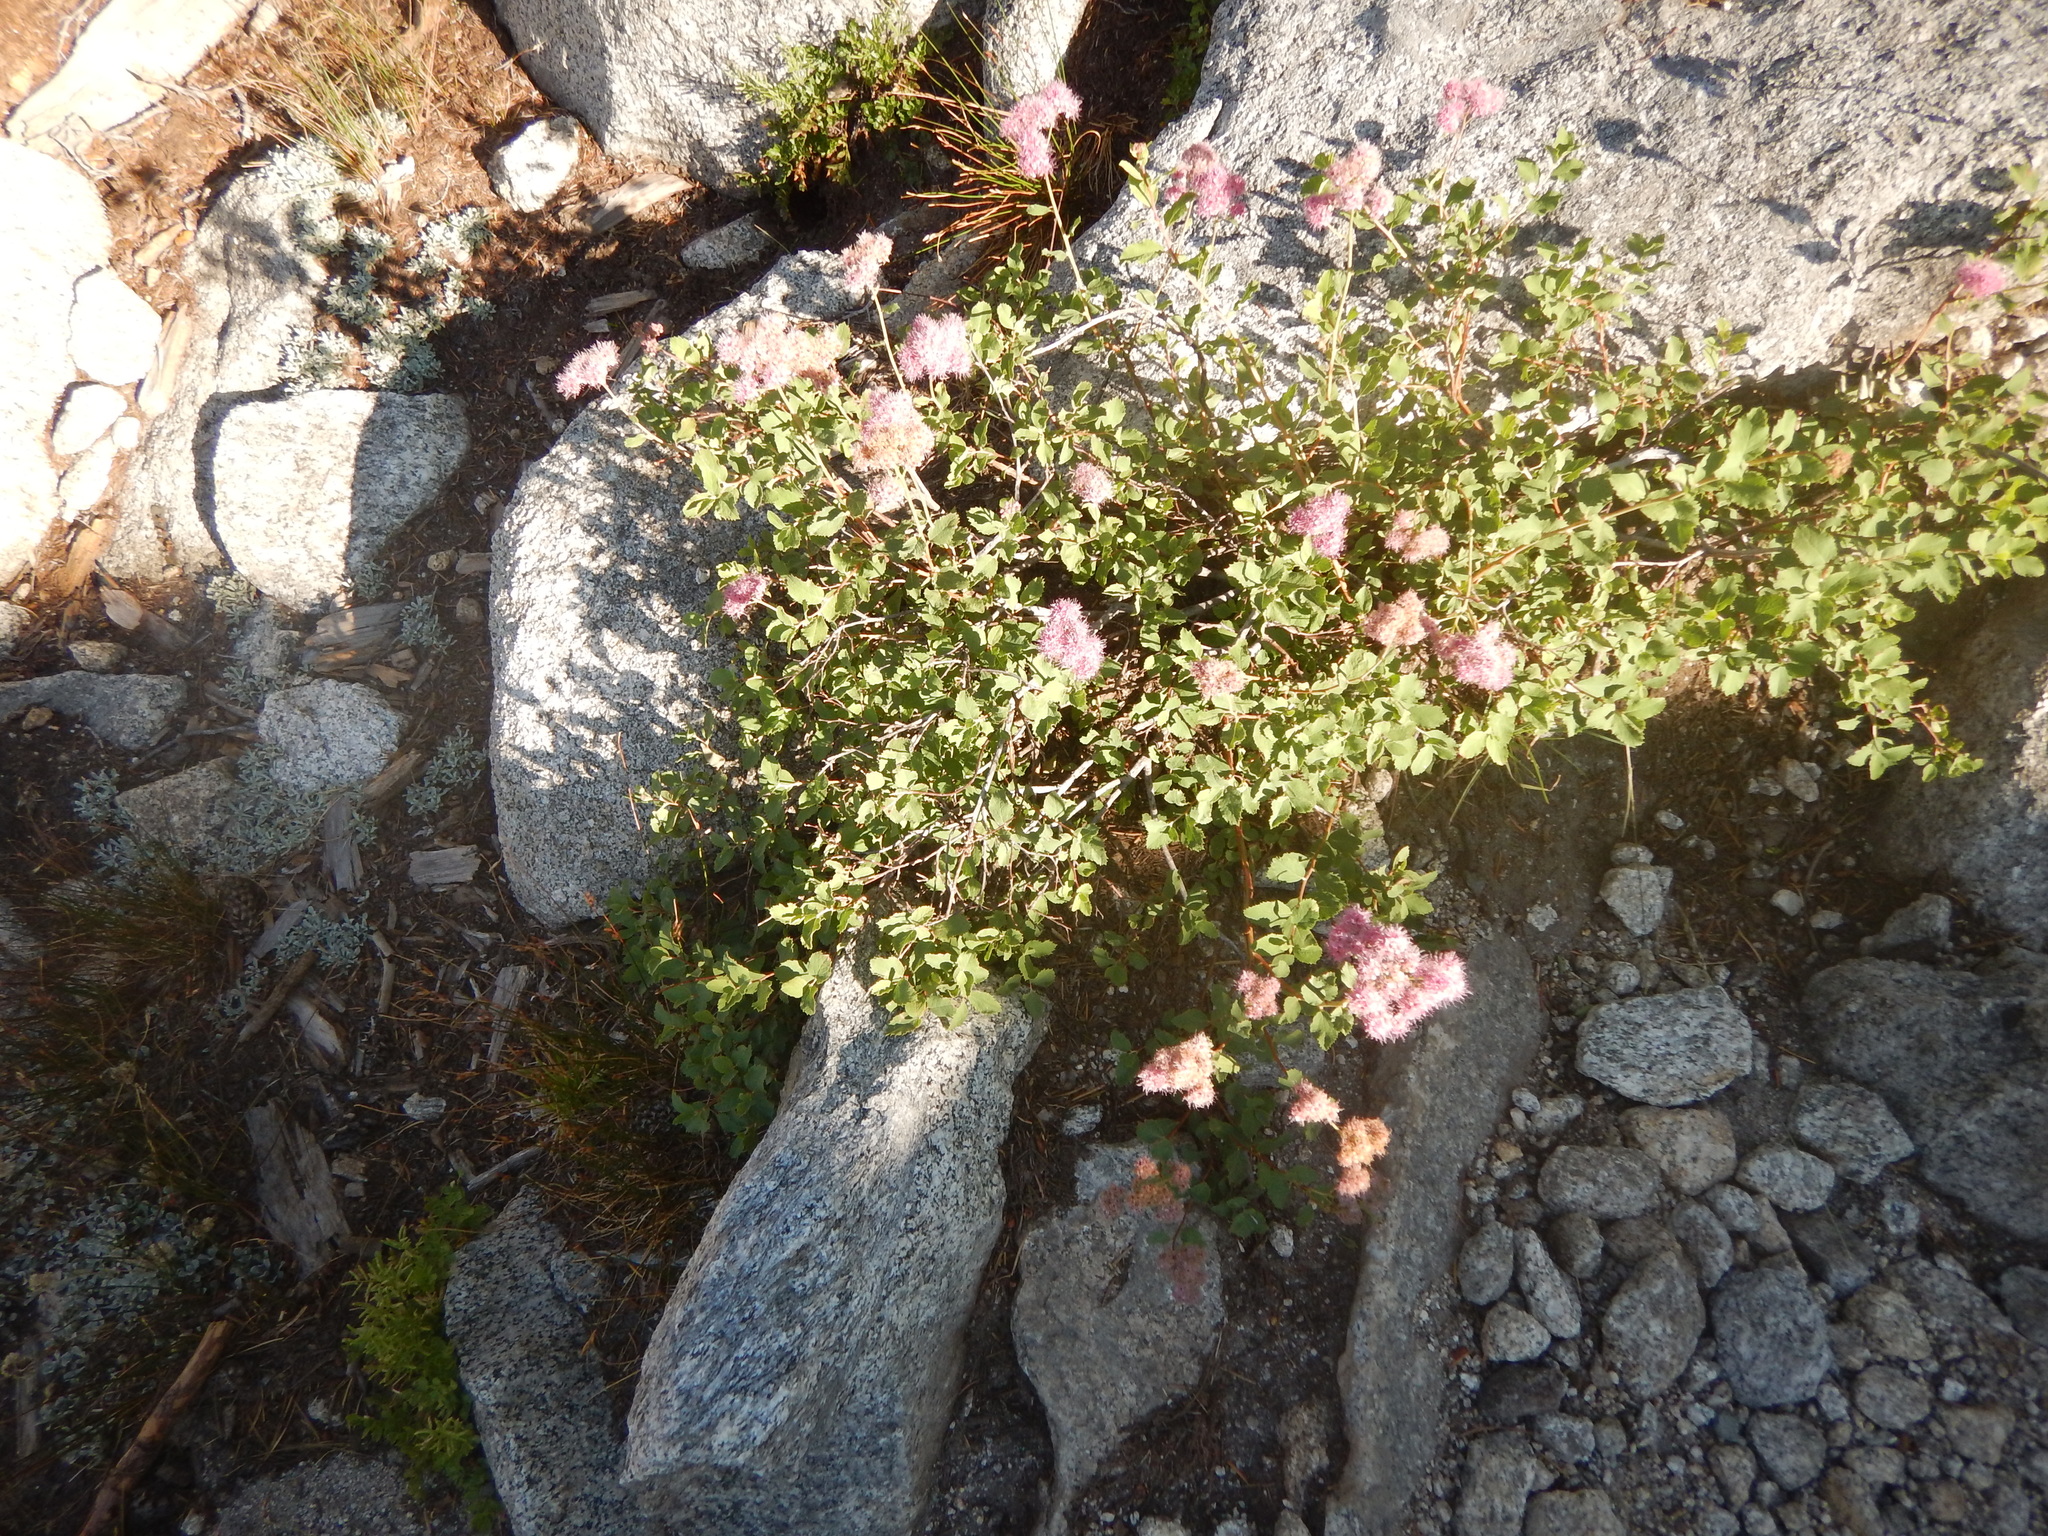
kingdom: Plantae
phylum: Tracheophyta
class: Magnoliopsida
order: Rosales
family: Rosaceae
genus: Spiraea
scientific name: Spiraea splendens
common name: Subalpine meadowsweet
